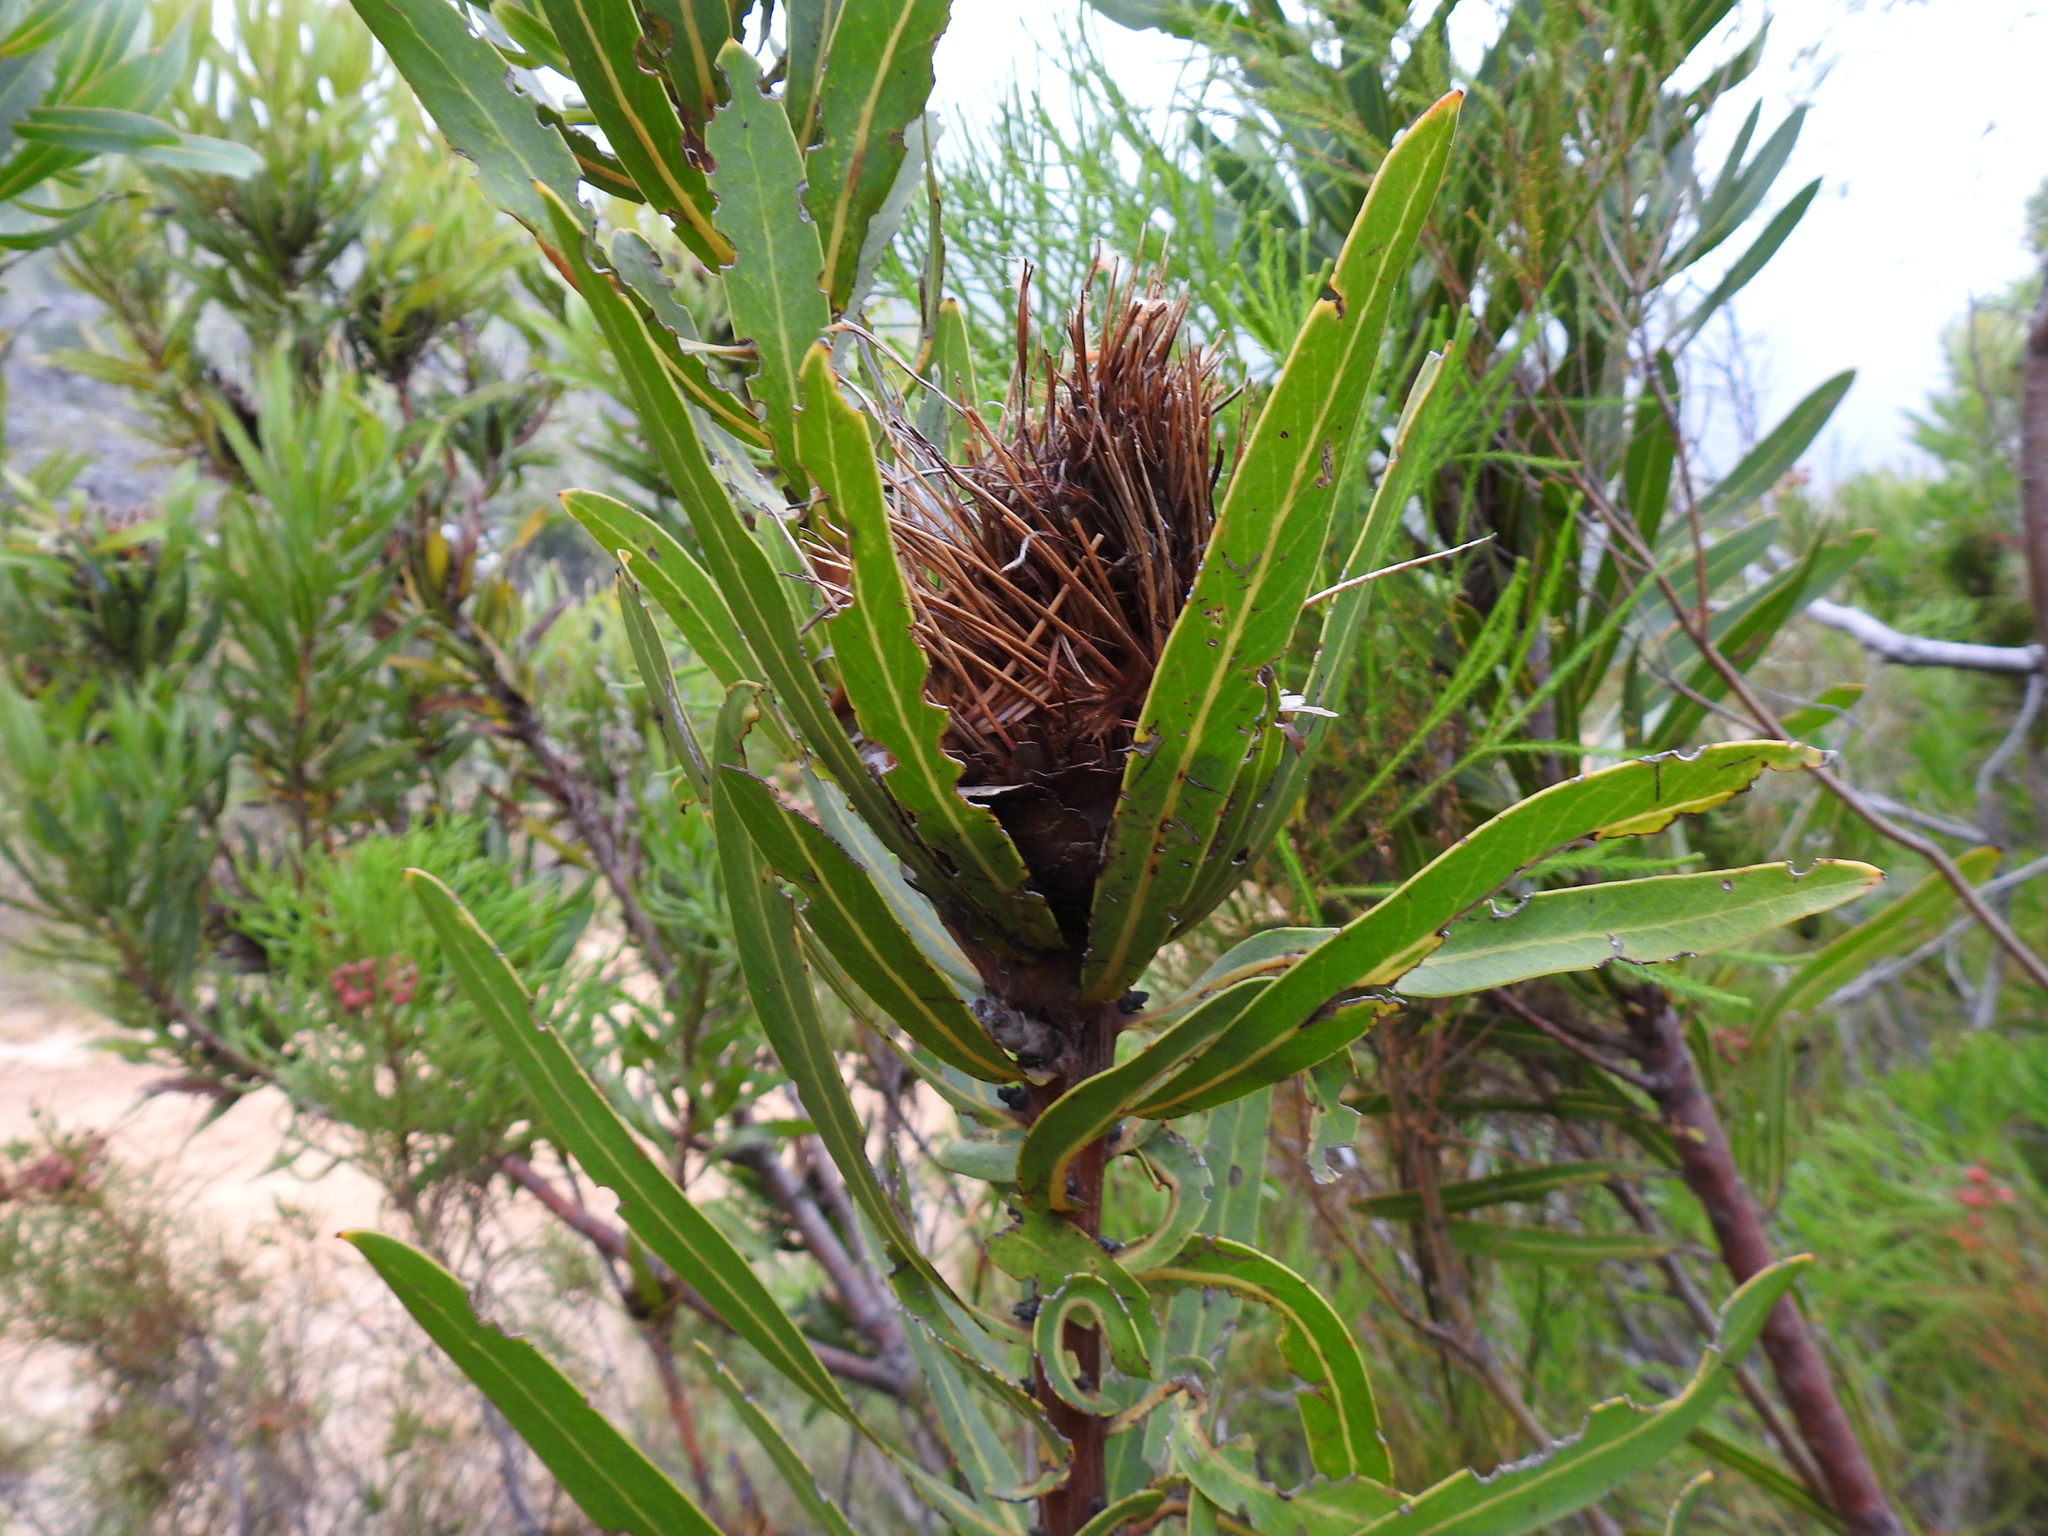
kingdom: Plantae
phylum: Tracheophyta
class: Magnoliopsida
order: Proteales
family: Proteaceae
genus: Protea
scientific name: Protea neriifolia
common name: Blue sugarbush
